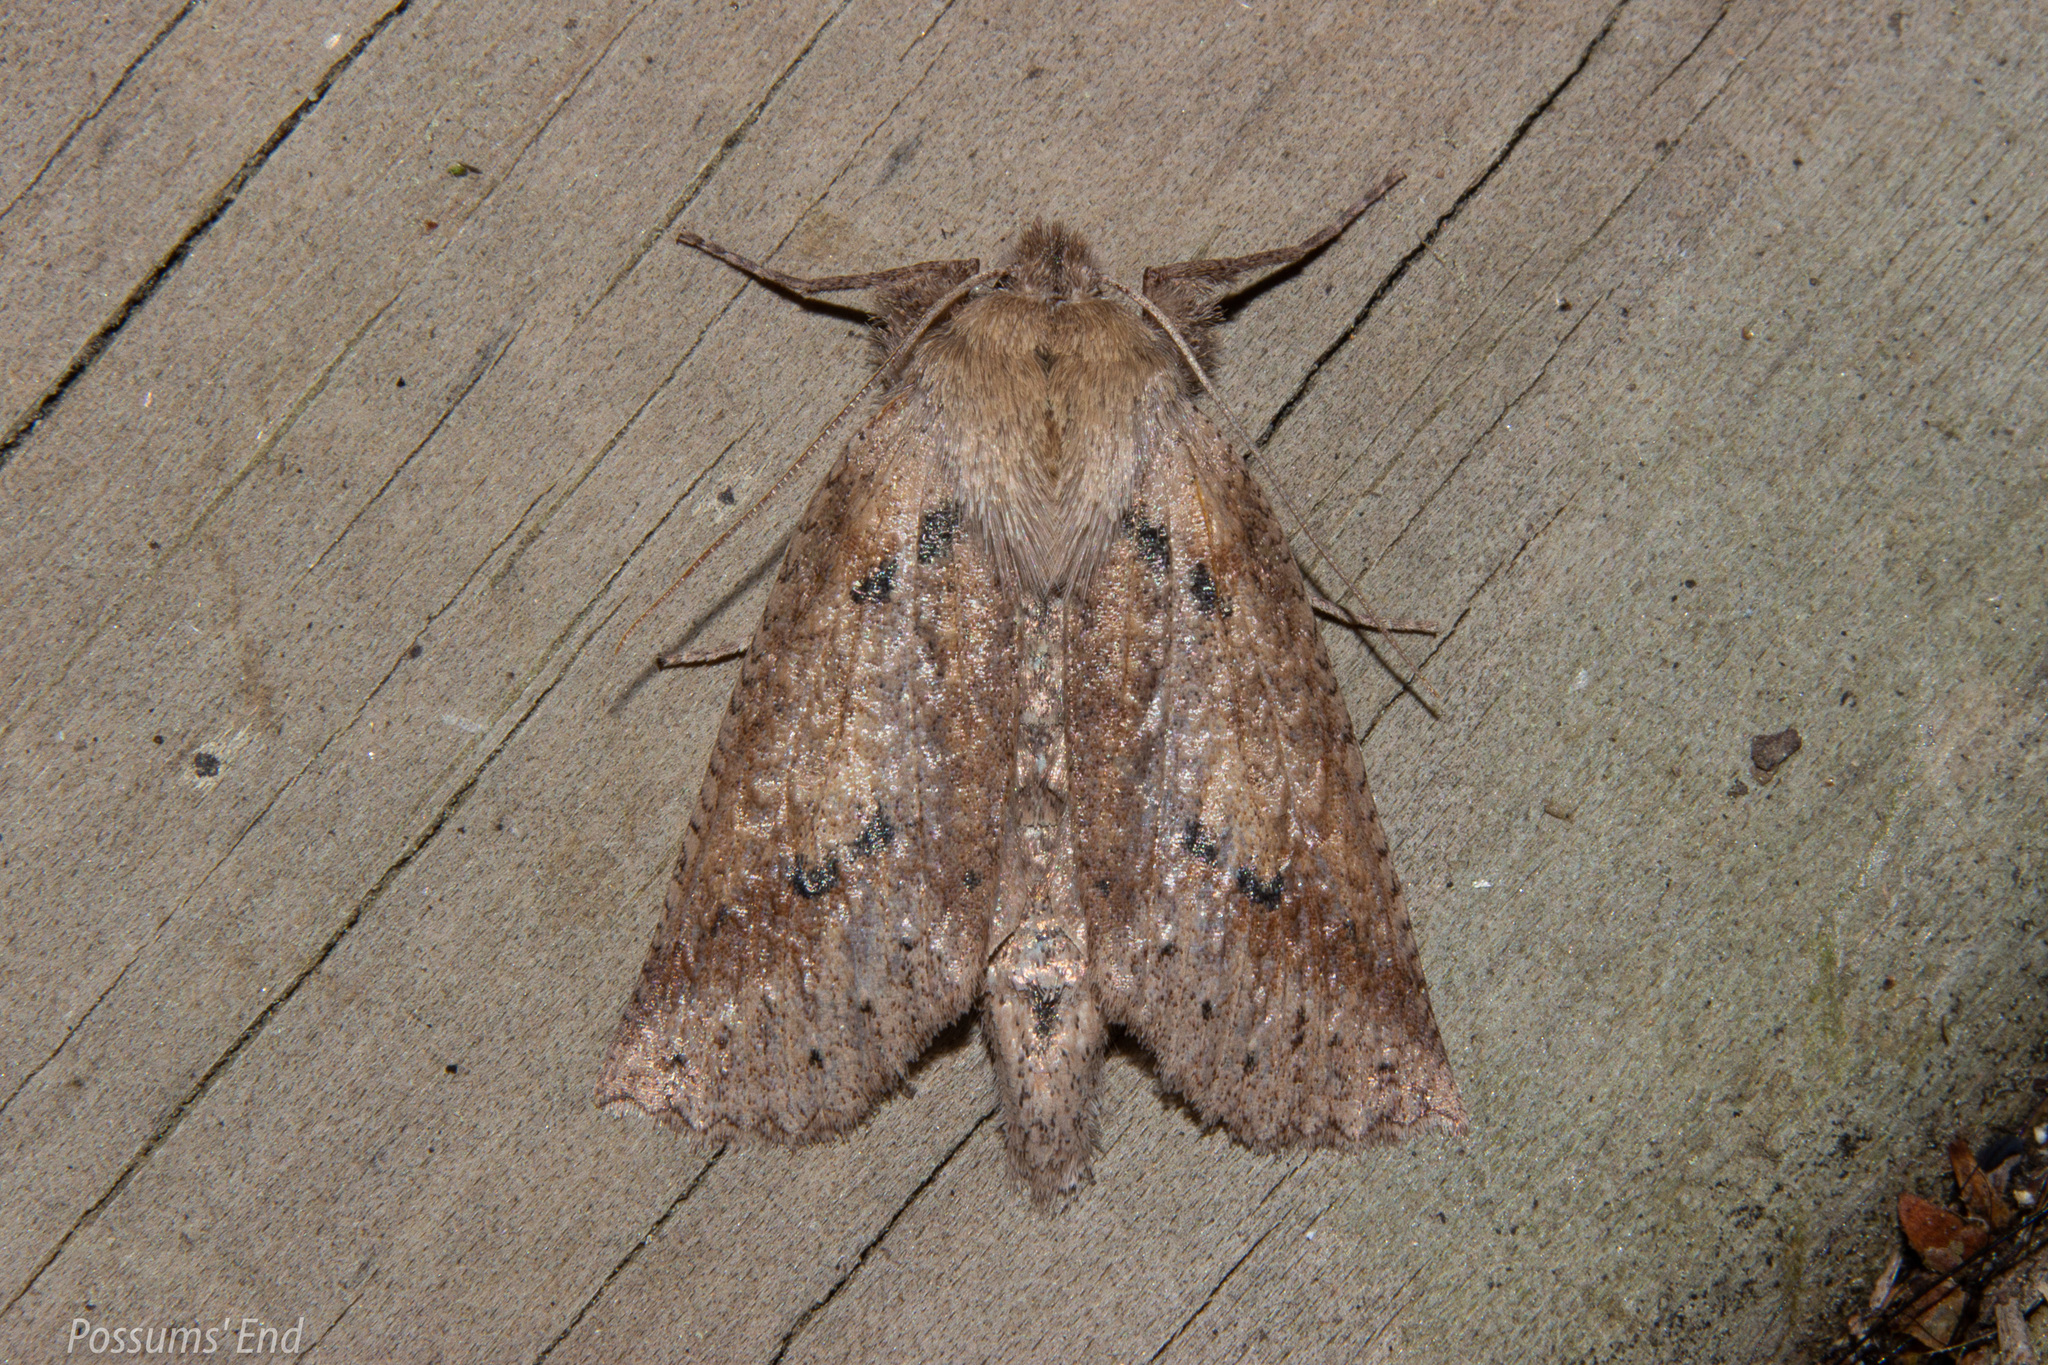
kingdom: Animalia
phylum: Arthropoda
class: Insecta
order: Lepidoptera
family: Geometridae
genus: Declana
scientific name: Declana leptomera
